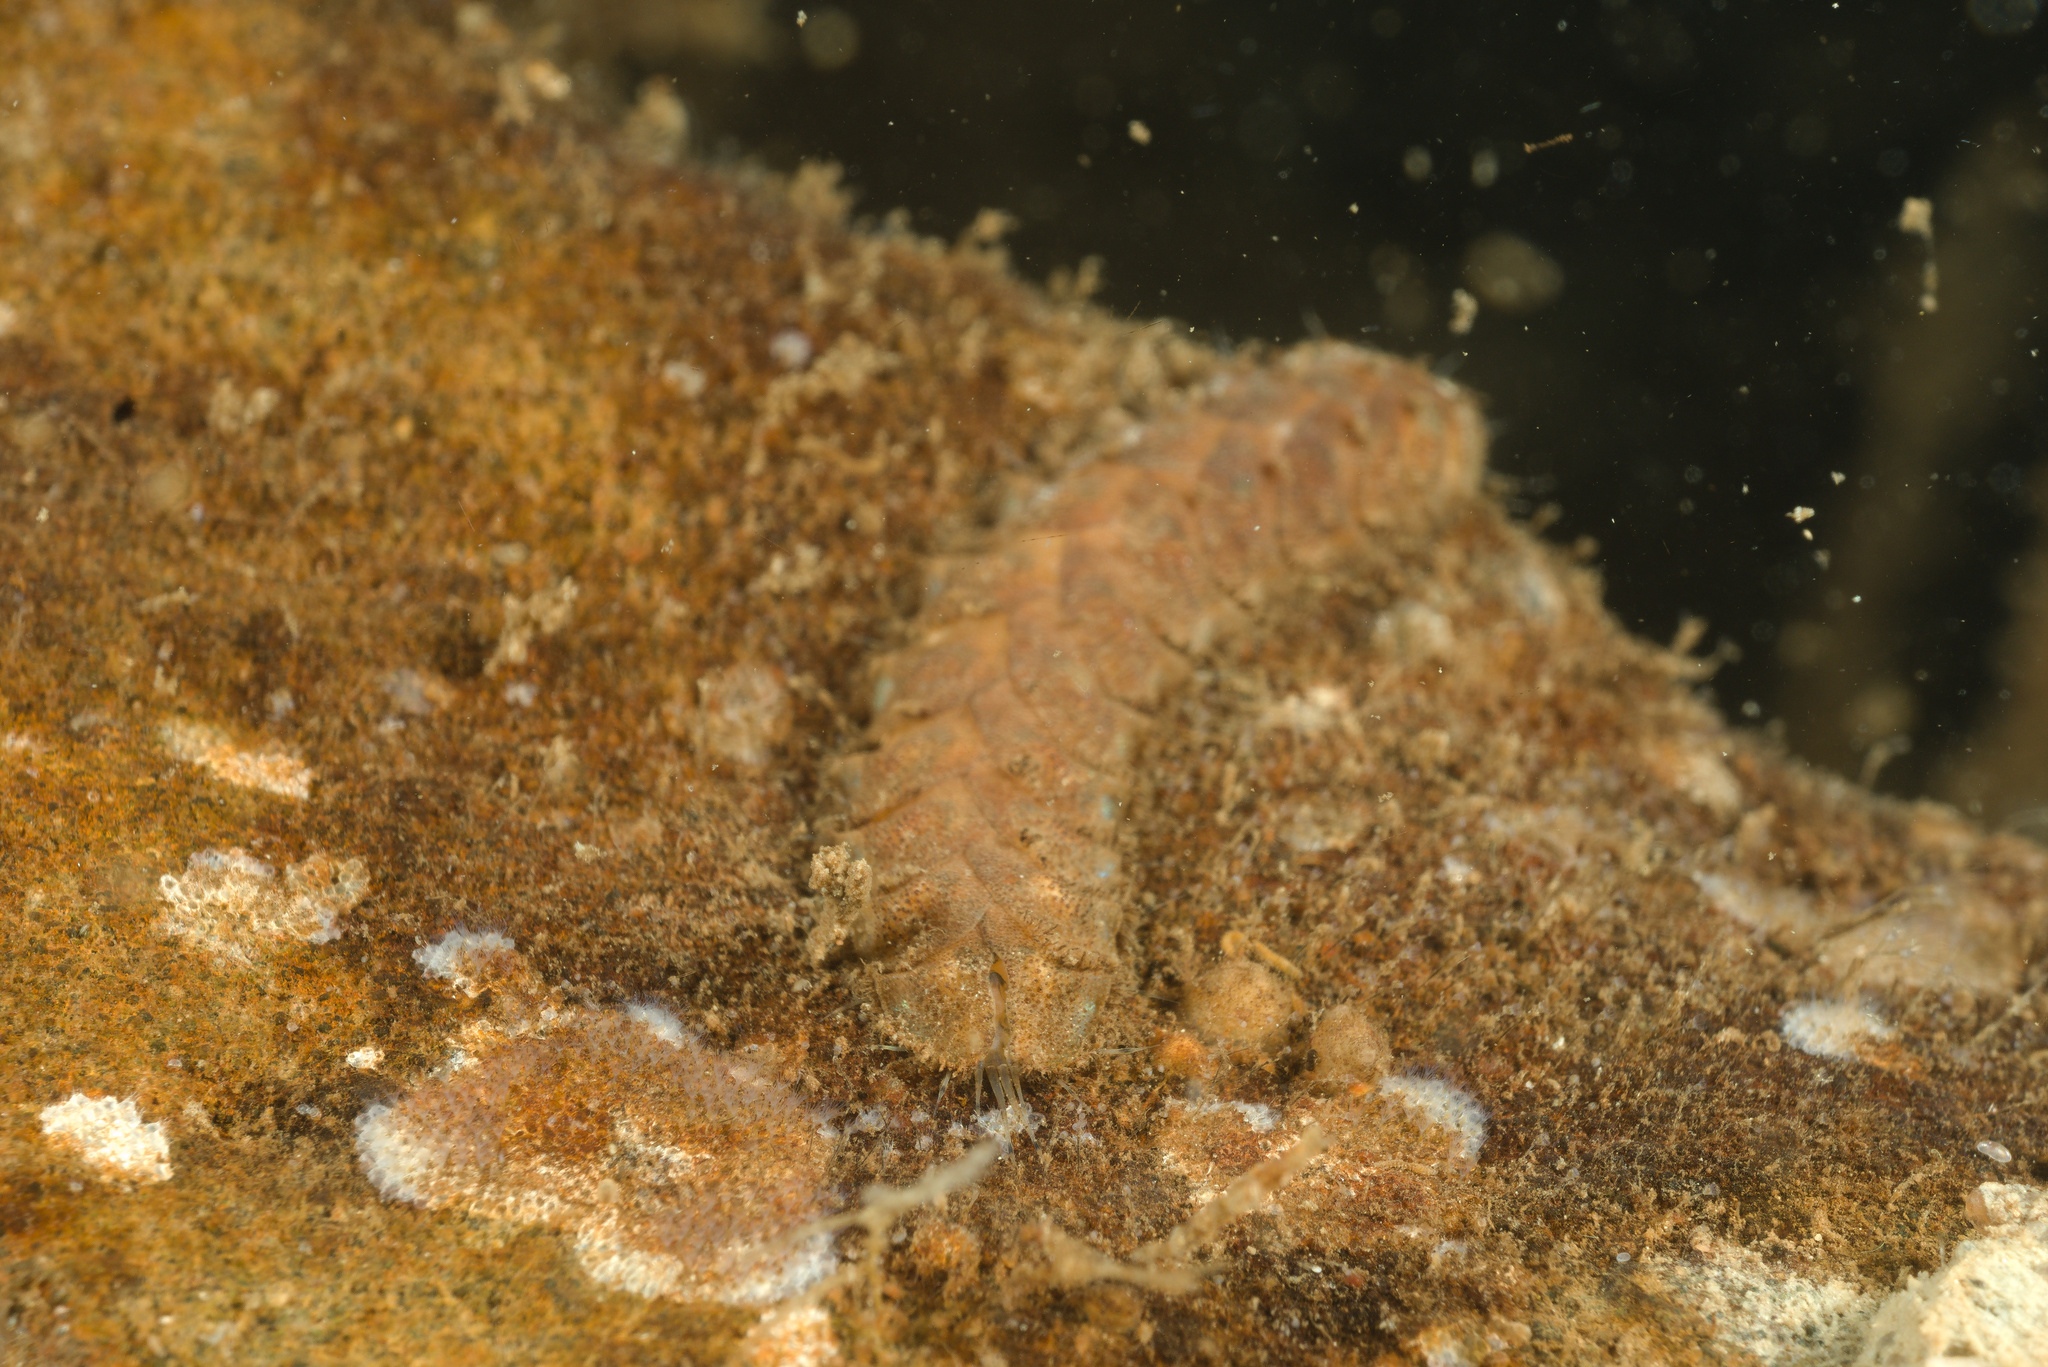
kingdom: Animalia
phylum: Annelida
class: Polychaeta
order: Phyllodocida
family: Polynoidae
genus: Lepidonotus
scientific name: Lepidonotus squamatus
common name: Twelve-scaled worm
